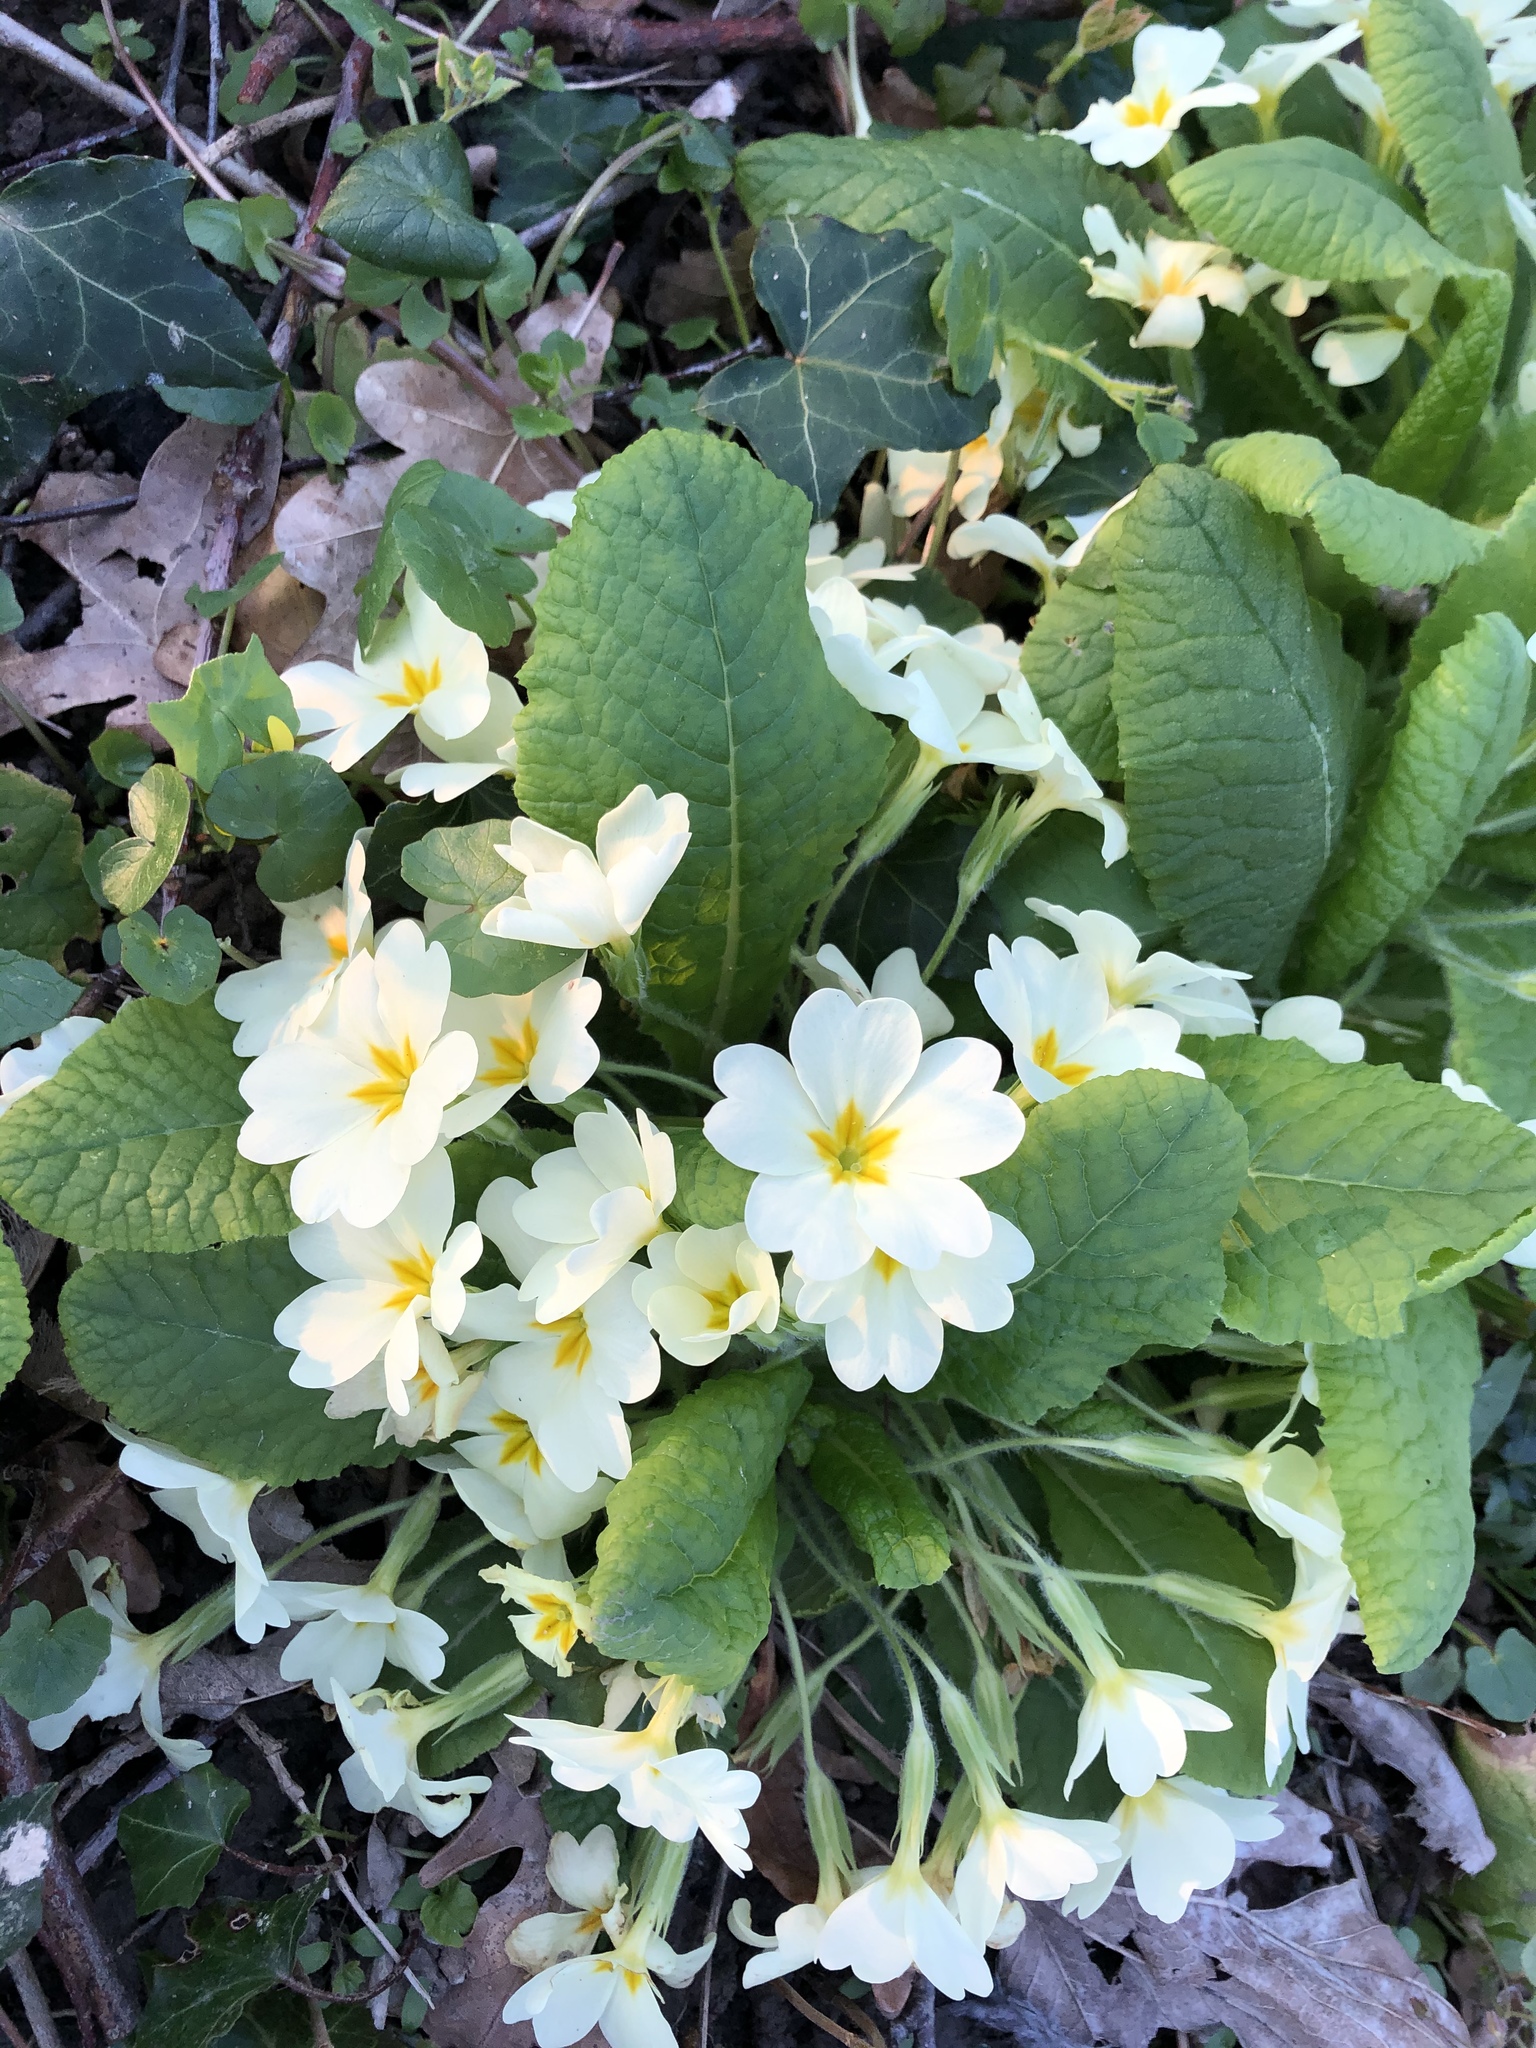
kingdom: Plantae
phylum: Tracheophyta
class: Magnoliopsida
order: Ericales
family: Primulaceae
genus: Primula
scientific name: Primula vulgaris
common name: Primrose
